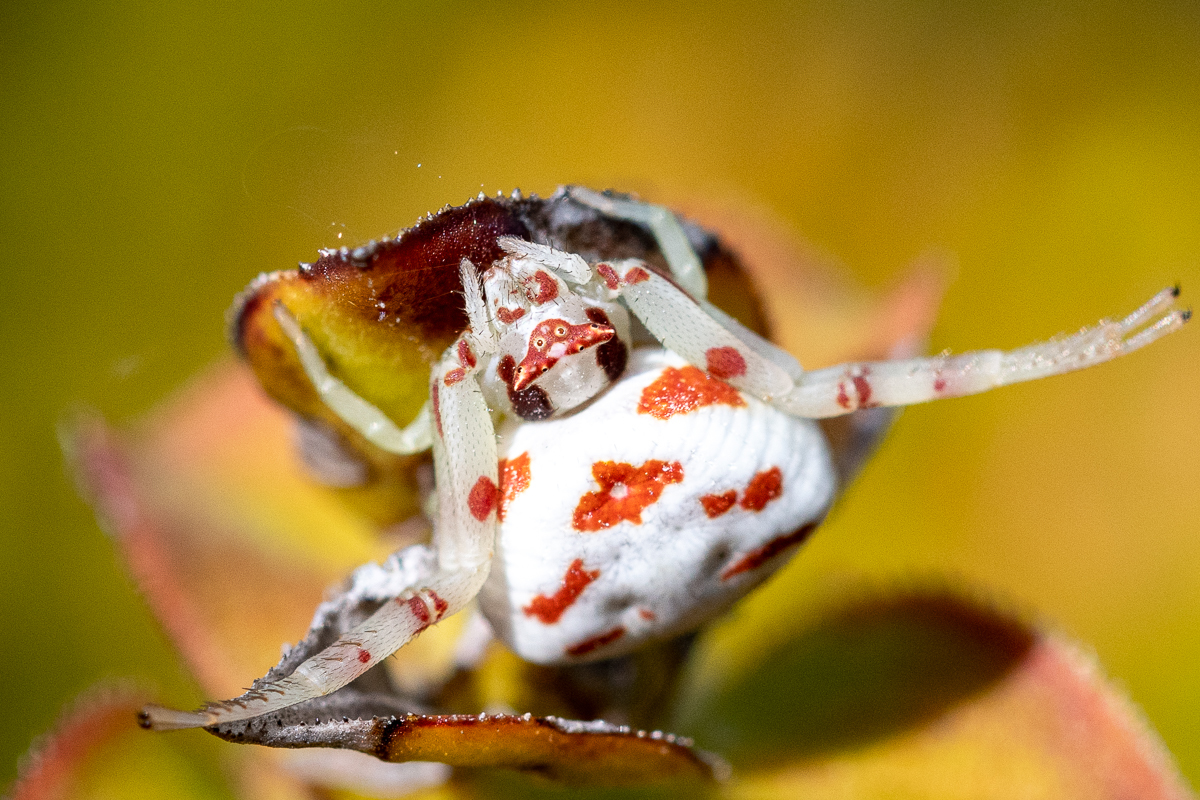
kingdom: Animalia
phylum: Arthropoda
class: Arachnida
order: Araneae
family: Thomisidae
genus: Thomisus
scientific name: Thomisus citrinellus
